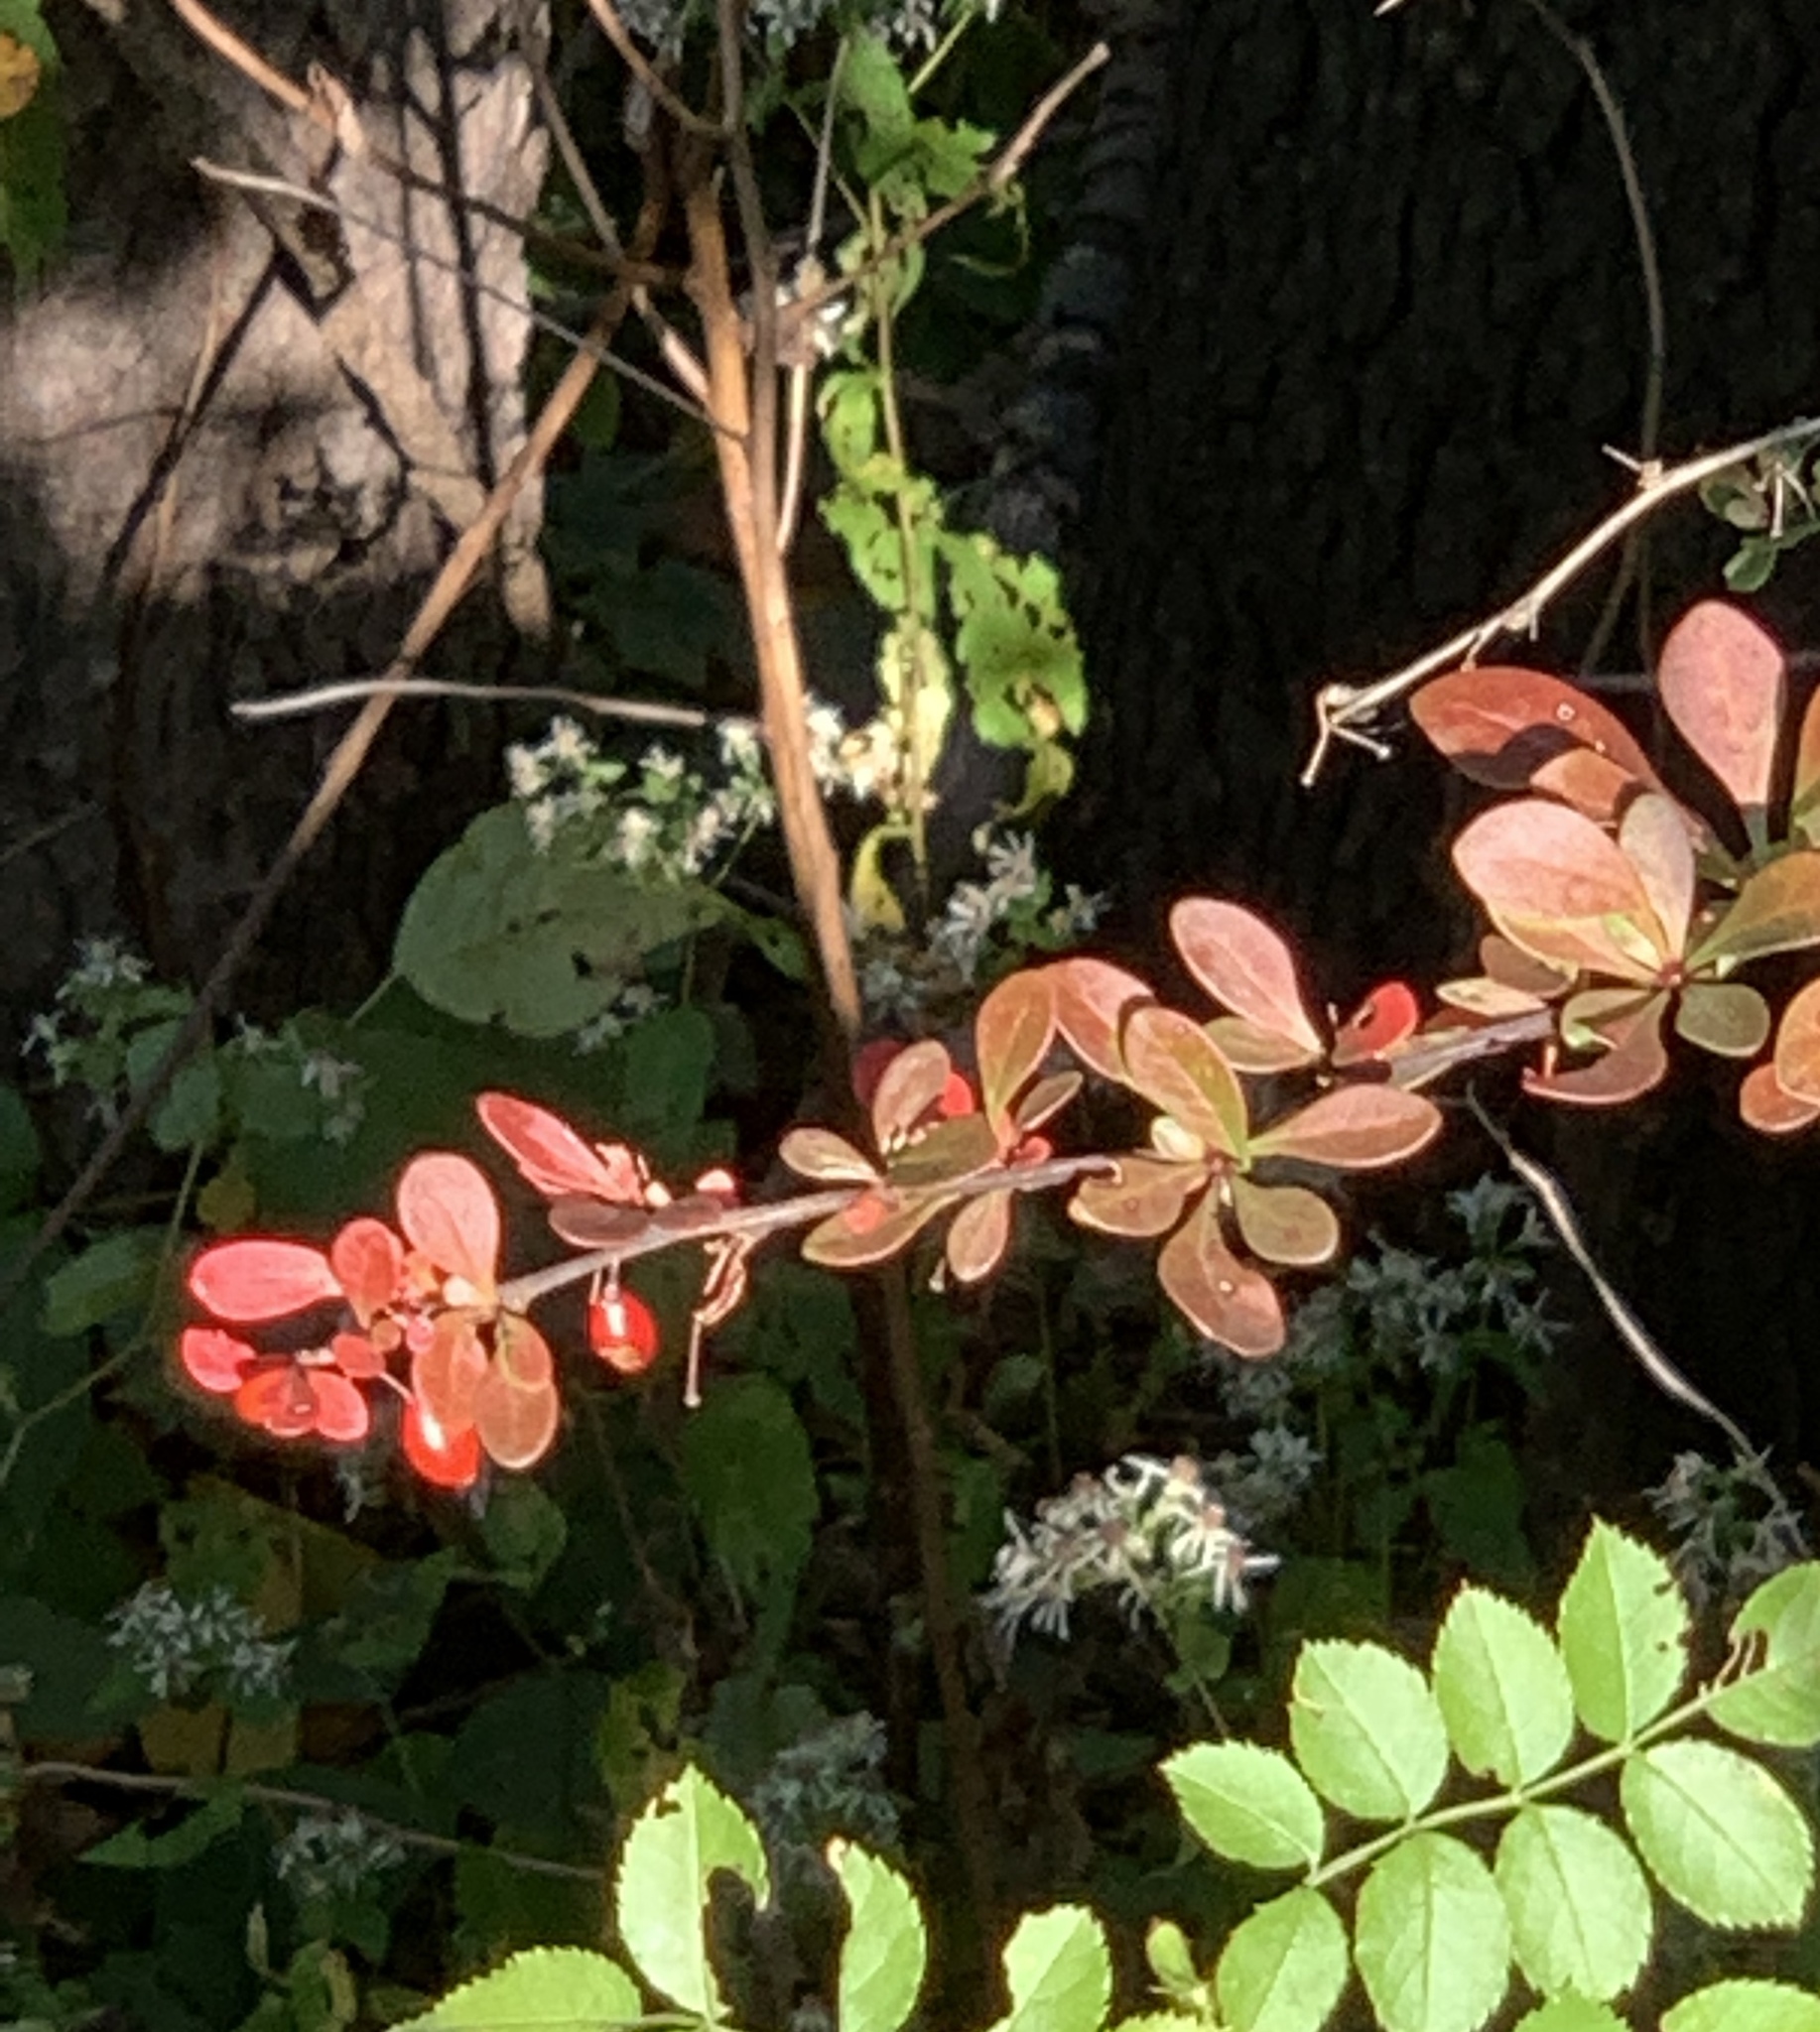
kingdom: Plantae
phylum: Tracheophyta
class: Magnoliopsida
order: Ranunculales
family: Berberidaceae
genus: Berberis
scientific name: Berberis thunbergii
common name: Japanese barberry
